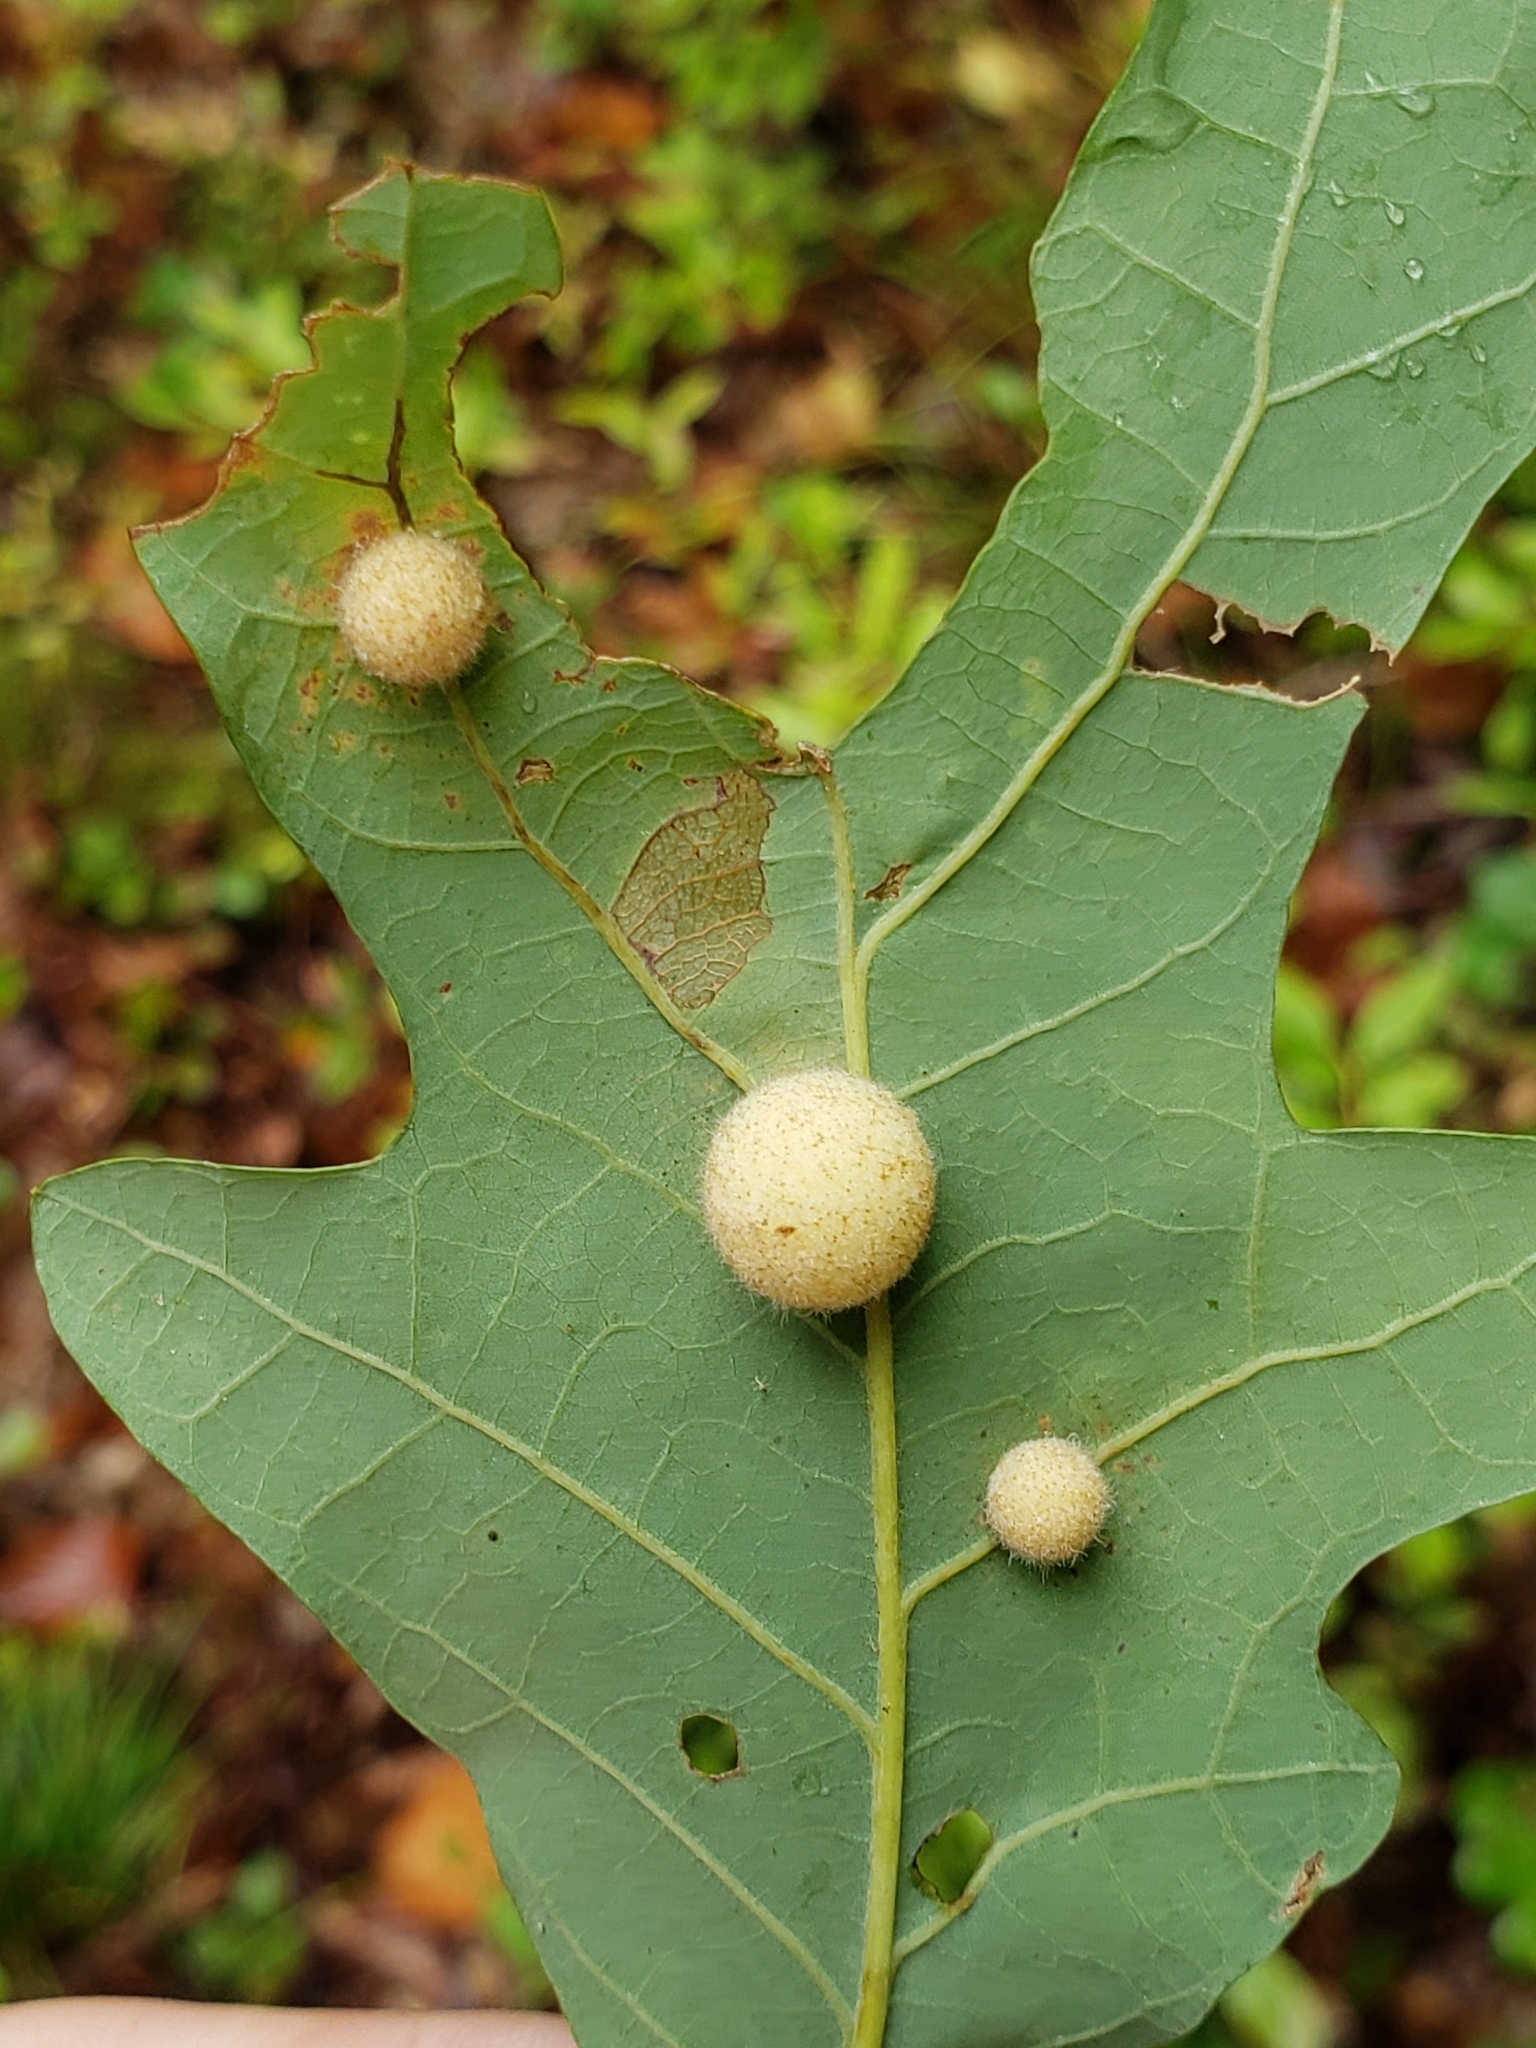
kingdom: Animalia
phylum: Arthropoda
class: Insecta
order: Hymenoptera
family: Cynipidae
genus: Philonix
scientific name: Philonix fulvicollis
